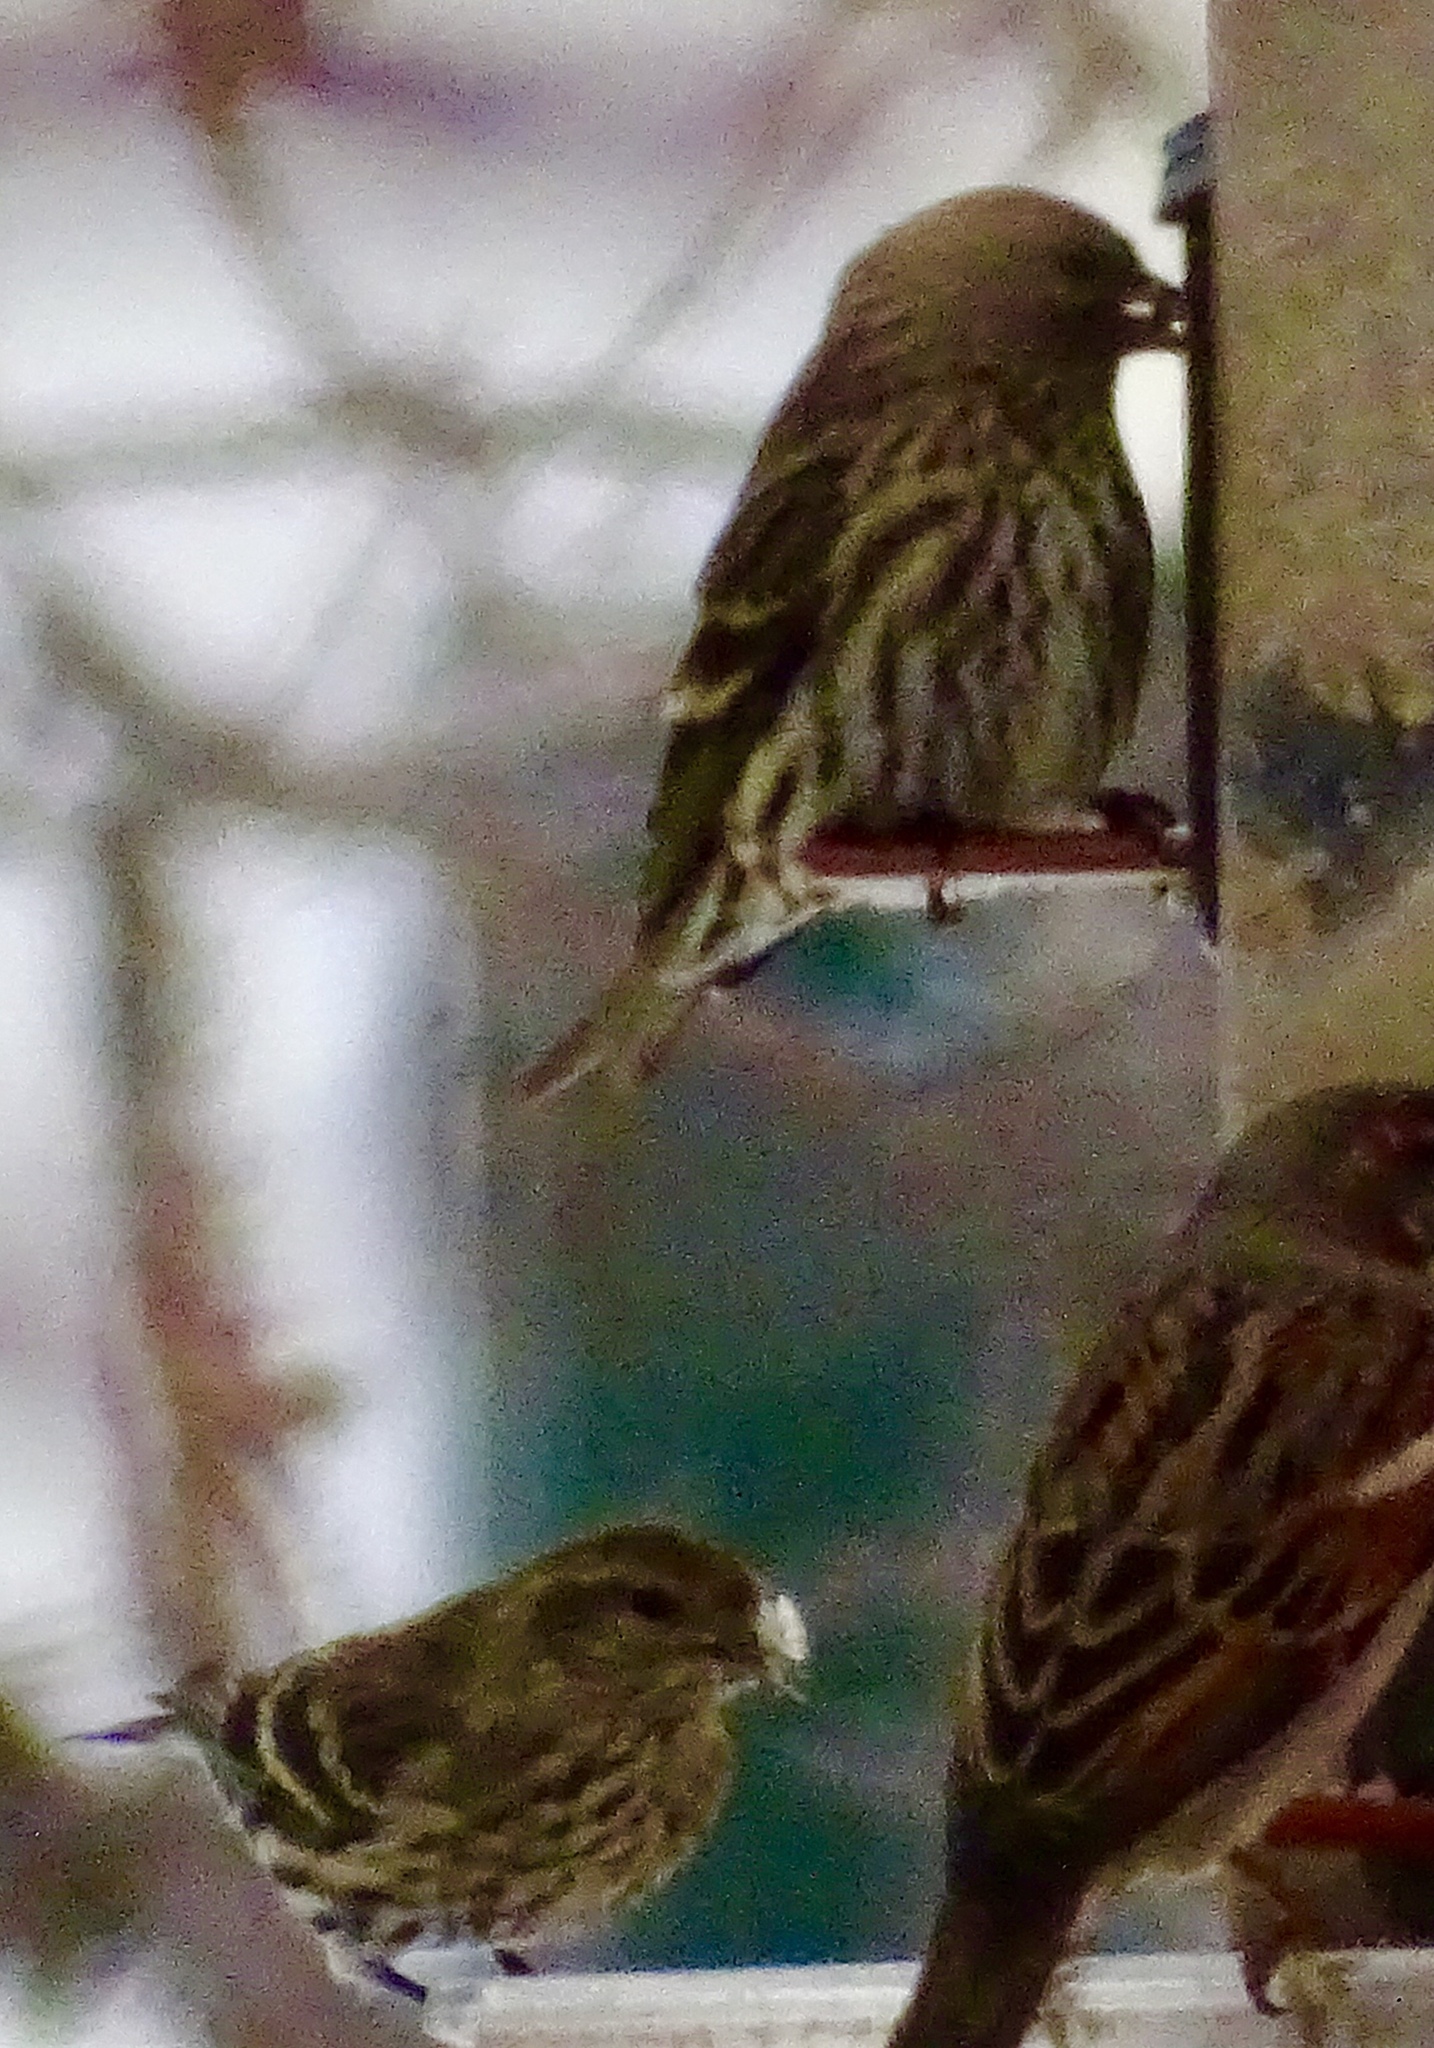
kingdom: Animalia
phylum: Chordata
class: Aves
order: Passeriformes
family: Fringillidae
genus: Spinus
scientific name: Spinus pinus
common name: Pine siskin
